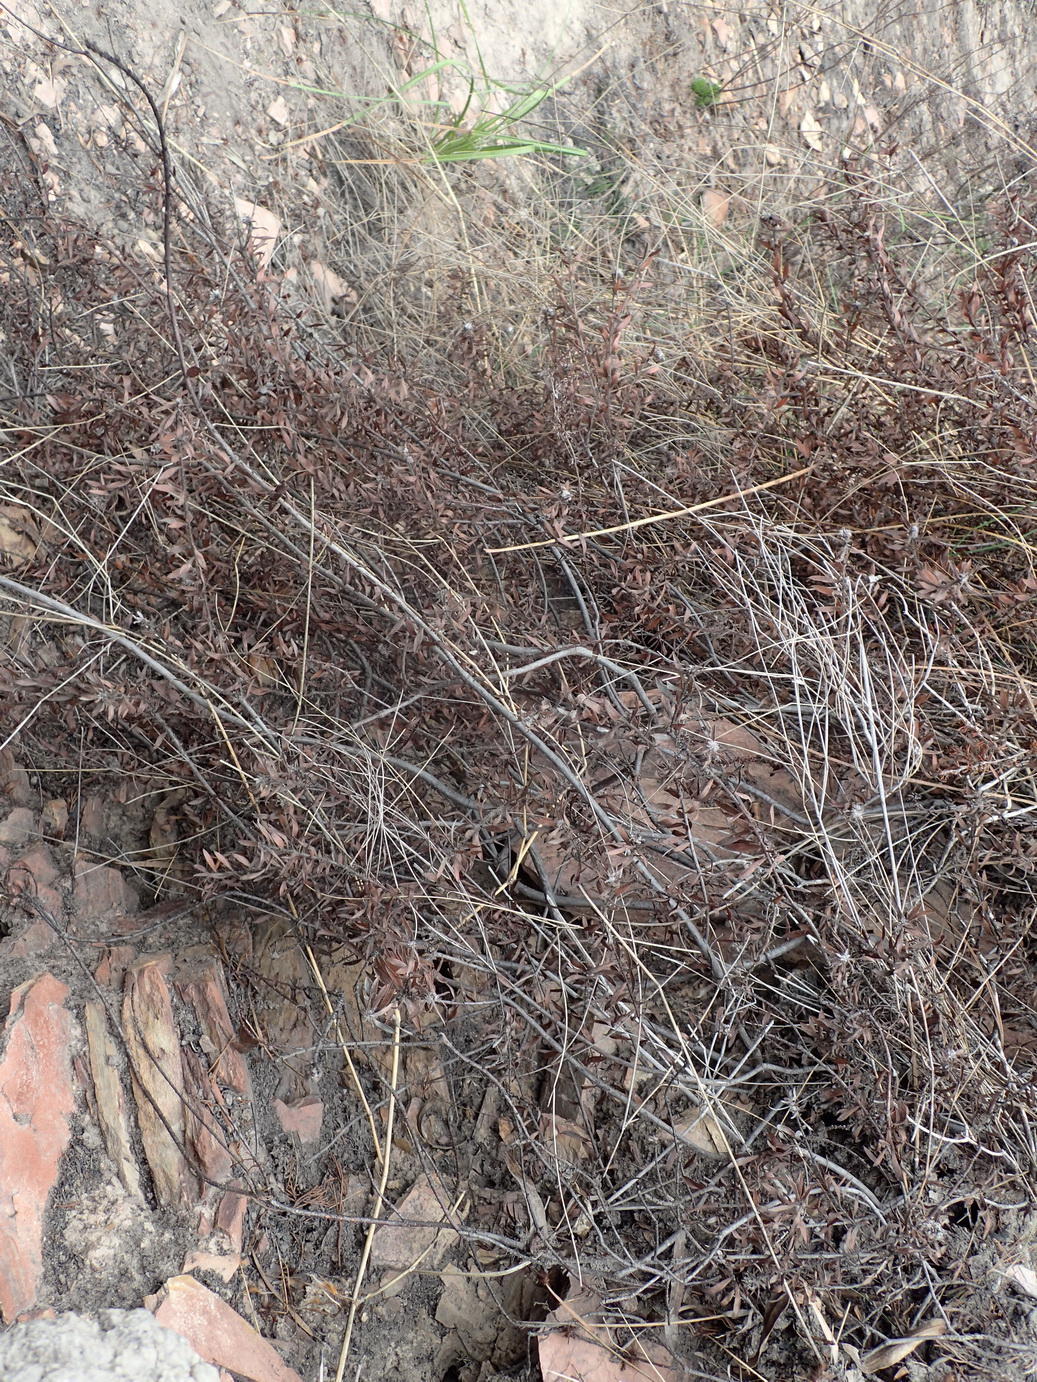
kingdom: Plantae
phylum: Tracheophyta
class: Magnoliopsida
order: Proteales
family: Proteaceae
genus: Leucospermum
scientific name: Leucospermum wittebergense
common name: Swartberg pincushion
